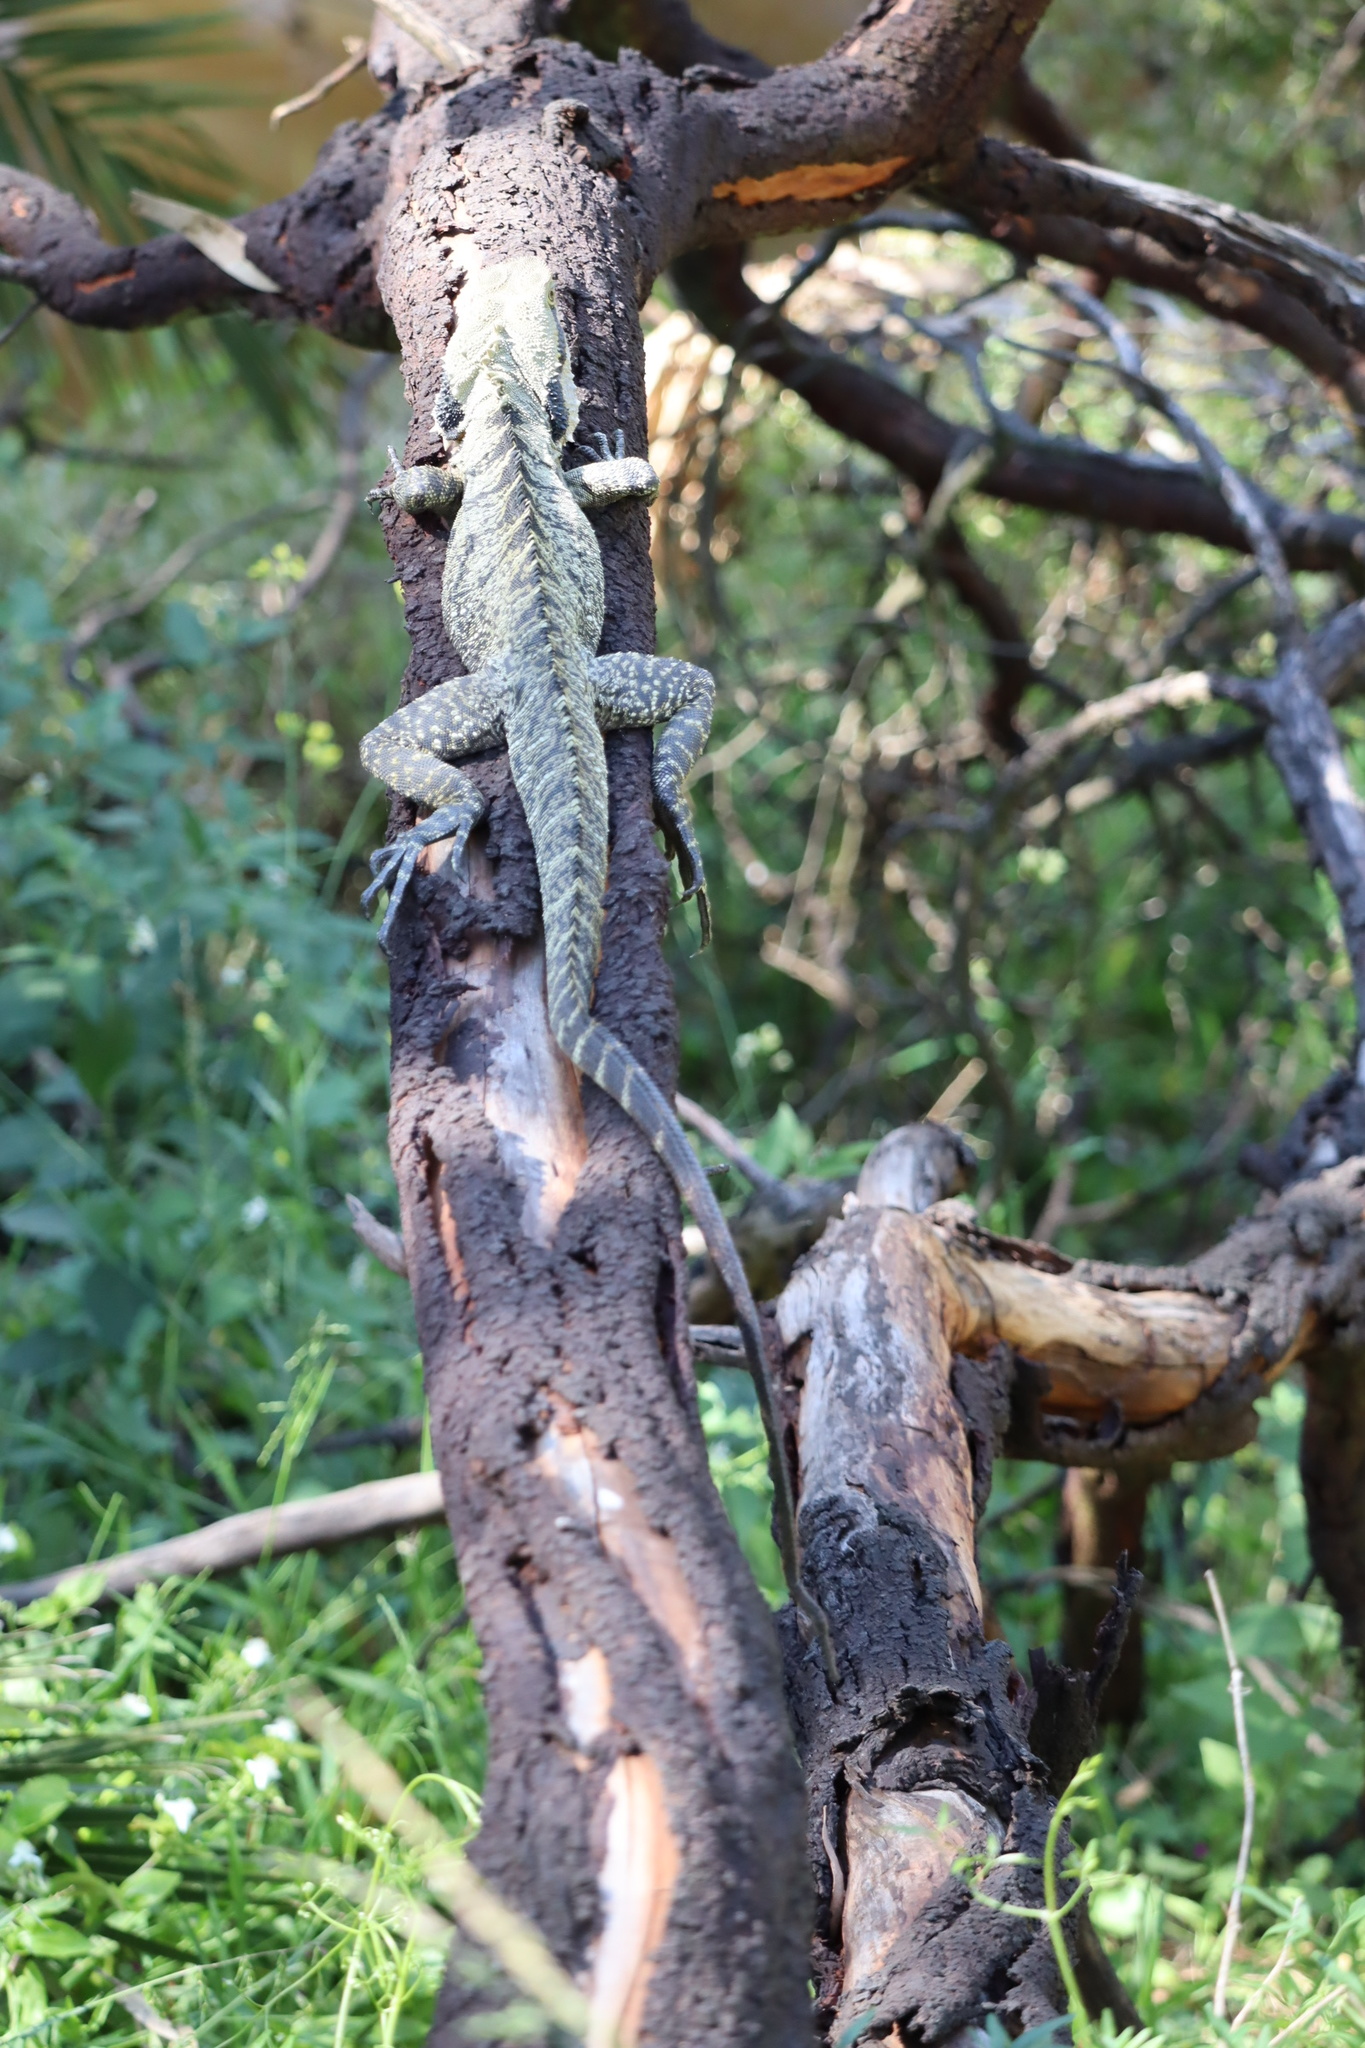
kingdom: Animalia
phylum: Chordata
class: Squamata
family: Agamidae
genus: Intellagama
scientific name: Intellagama lesueurii
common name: Eastern water dragon
